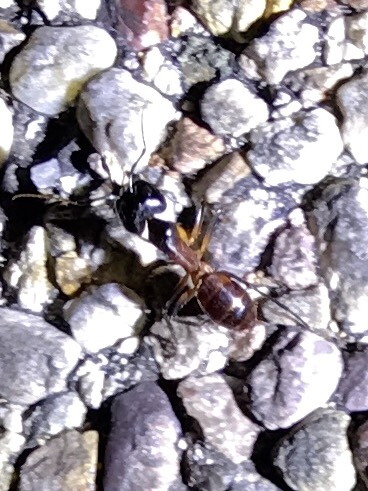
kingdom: Animalia
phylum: Arthropoda
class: Insecta
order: Hymenoptera
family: Formicidae
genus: Camponotus
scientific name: Camponotus ocreatus
